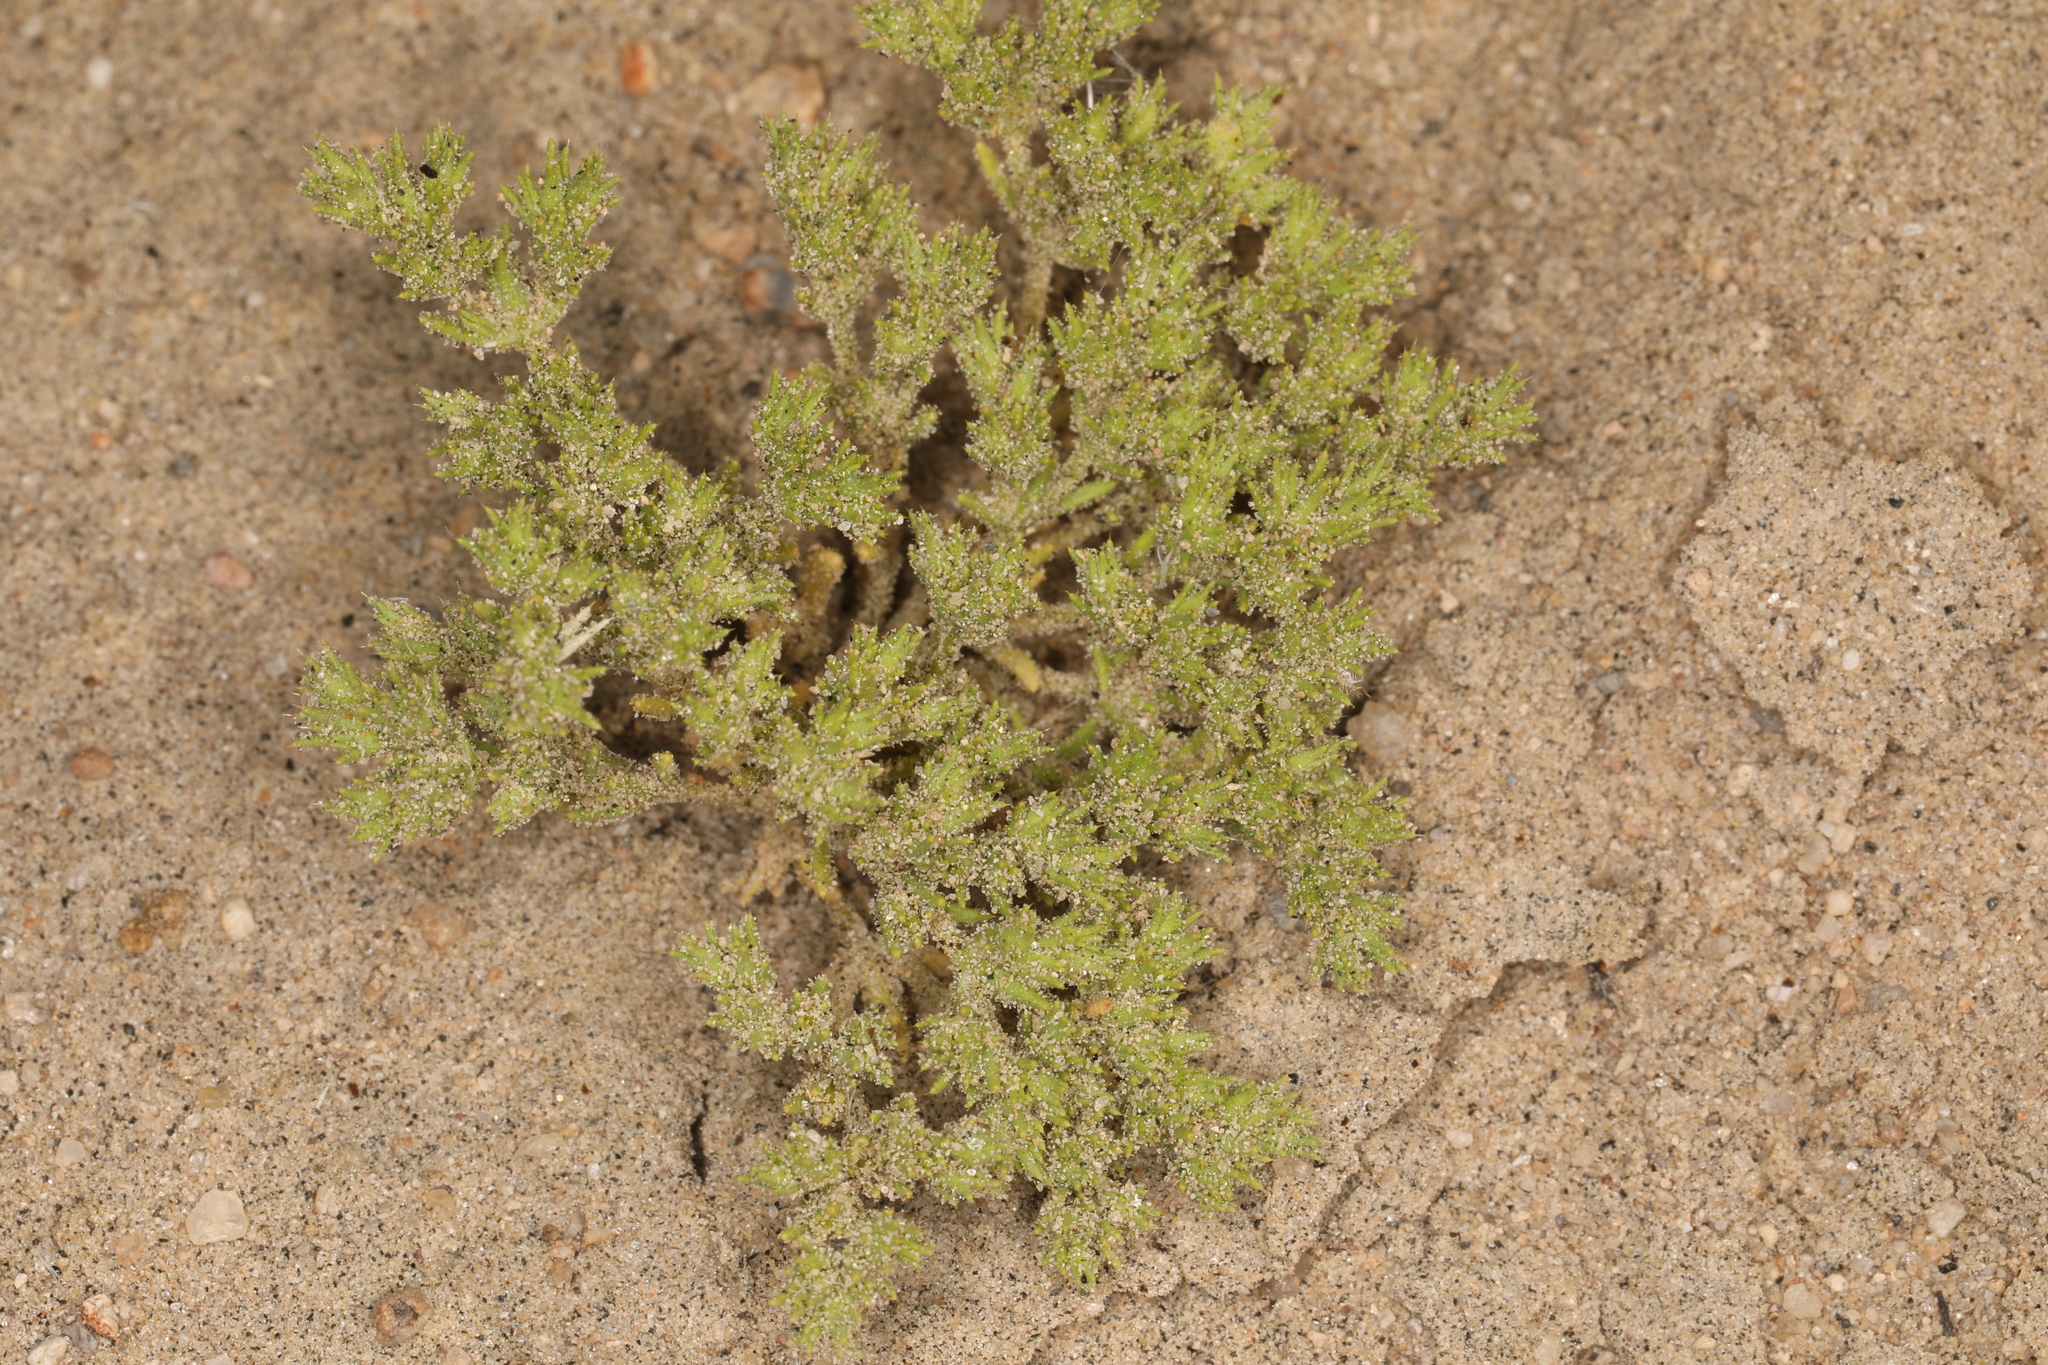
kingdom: Plantae
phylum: Tracheophyta
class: Magnoliopsida
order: Caryophyllales
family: Caryophyllaceae
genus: Loeflingia
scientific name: Loeflingia squarrosa
